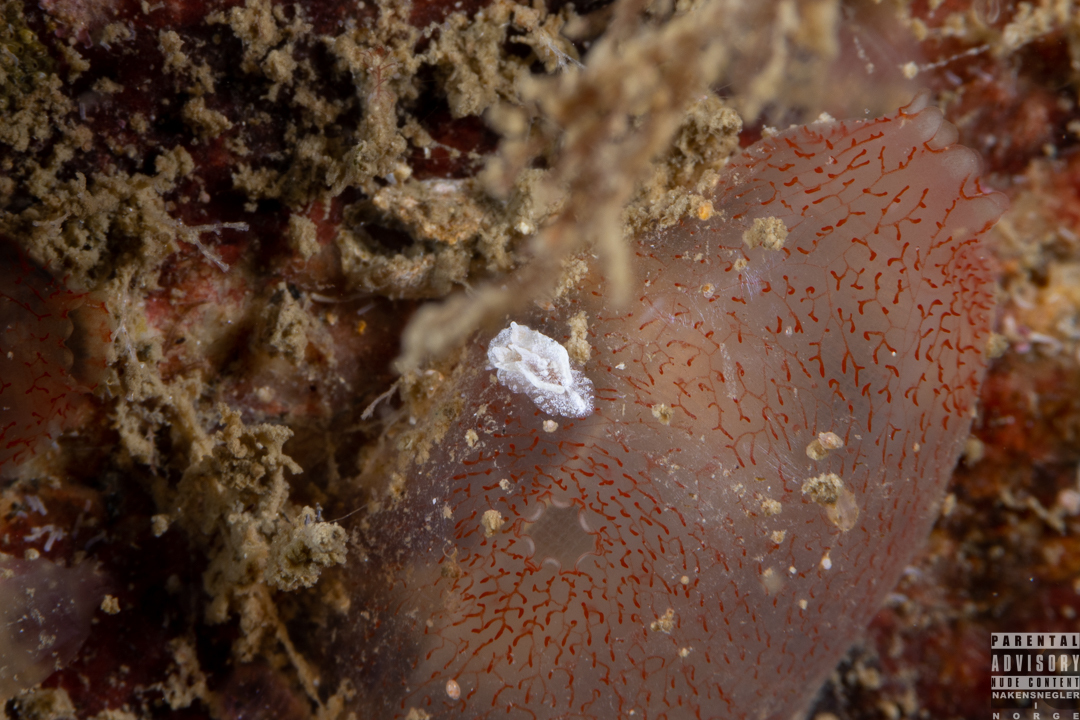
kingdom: Animalia
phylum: Mollusca
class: Gastropoda
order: Nudibranchia
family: Goniodorididae
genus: Pelagella
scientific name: Pelagella castanea
